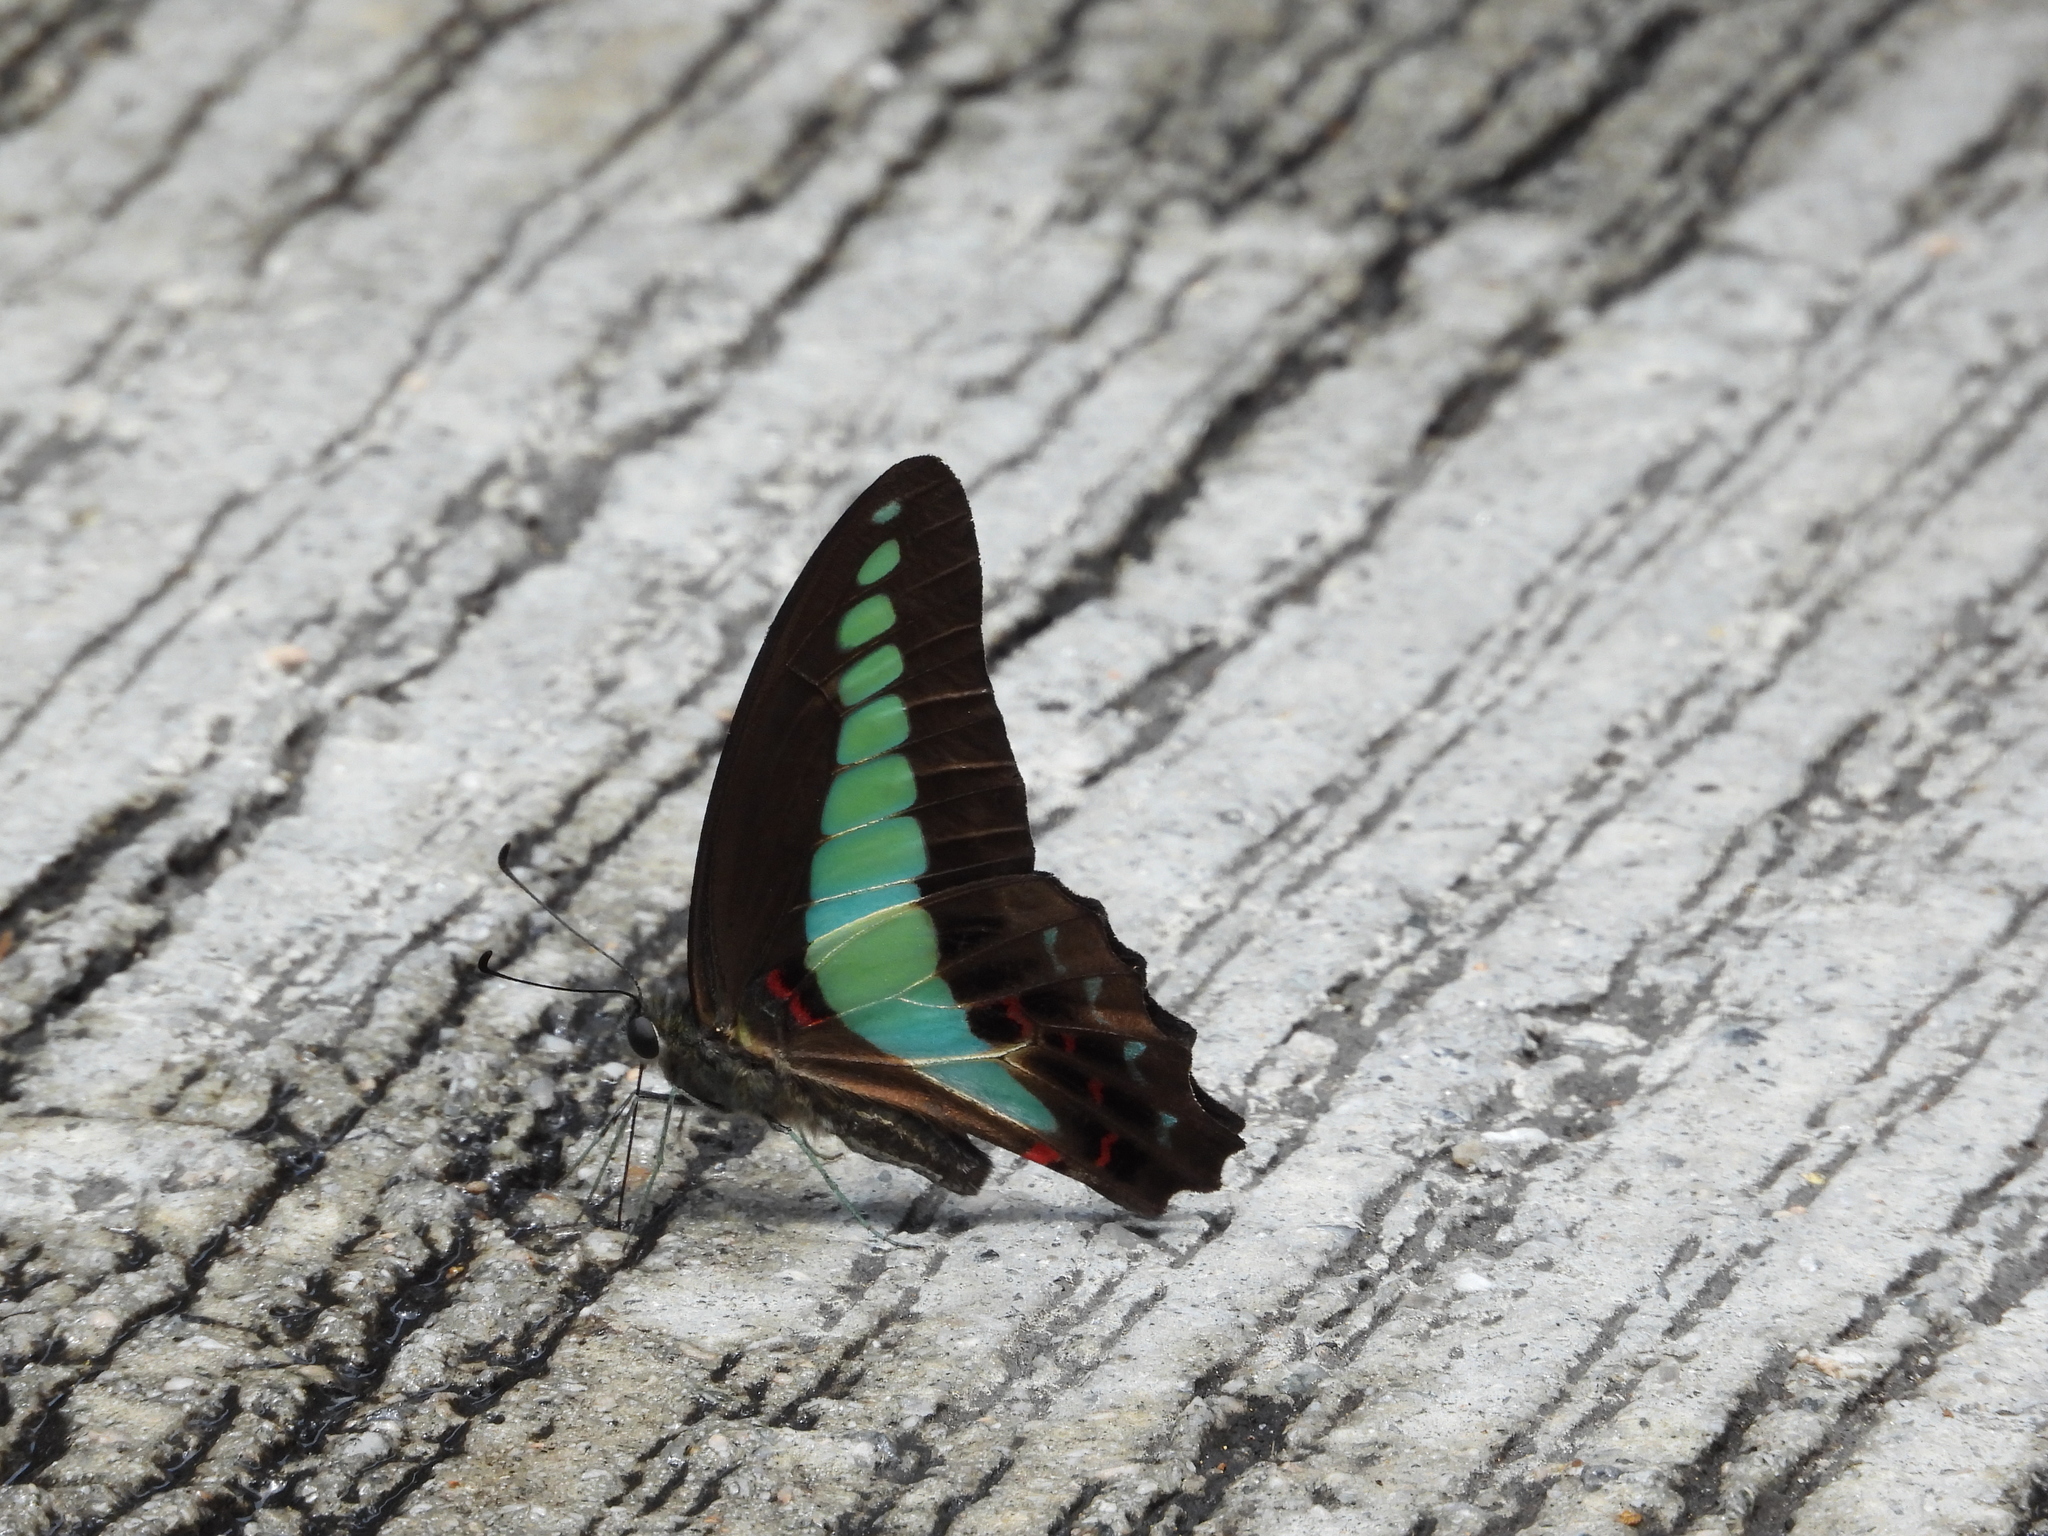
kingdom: Fungi
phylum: Ascomycota
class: Sordariomycetes
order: Microascales
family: Microascaceae
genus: Graphium
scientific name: Graphium sarpedon
